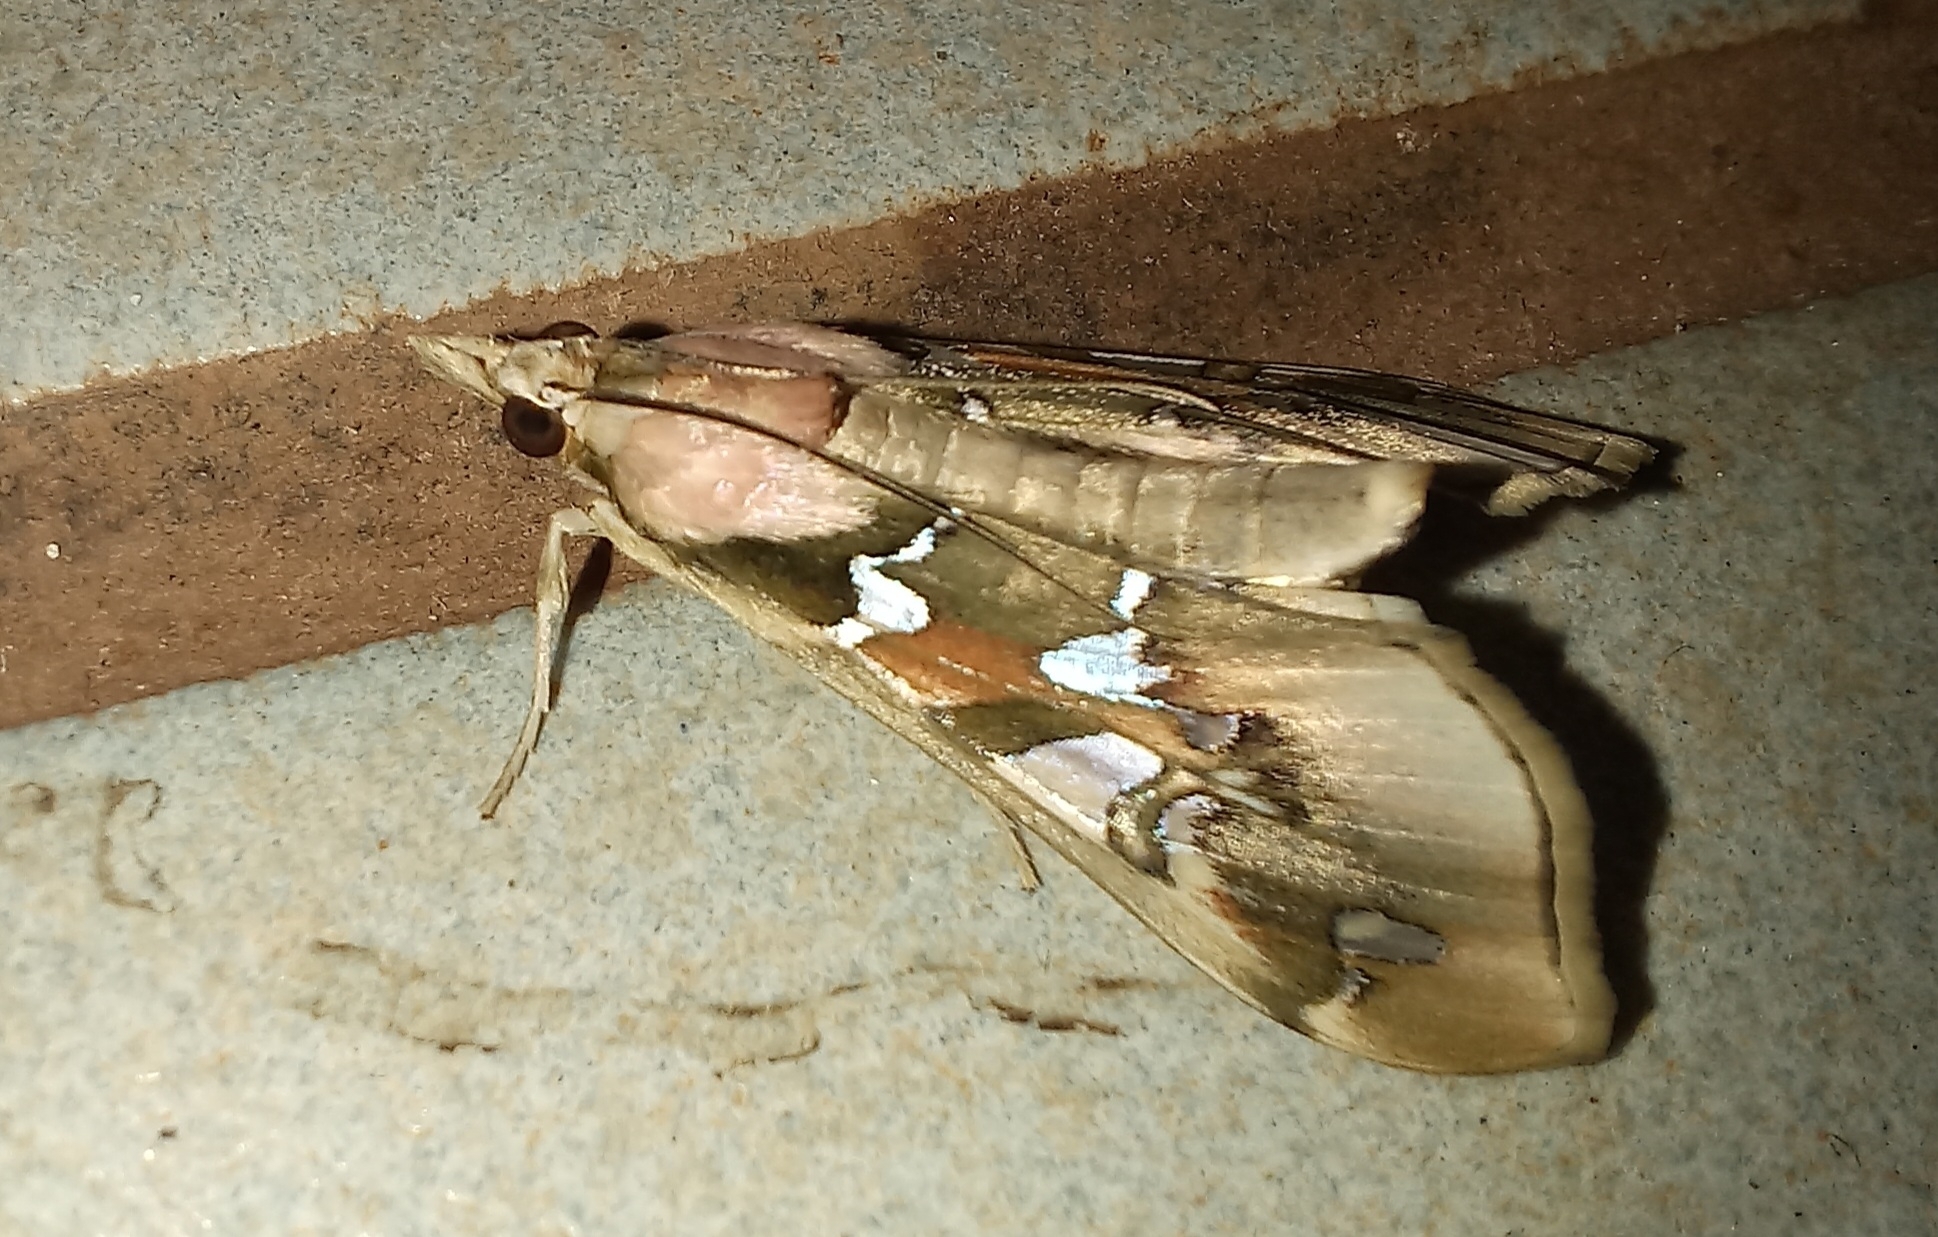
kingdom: Animalia
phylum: Arthropoda
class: Insecta
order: Lepidoptera
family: Crambidae
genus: Terastia
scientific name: Terastia margaritis
